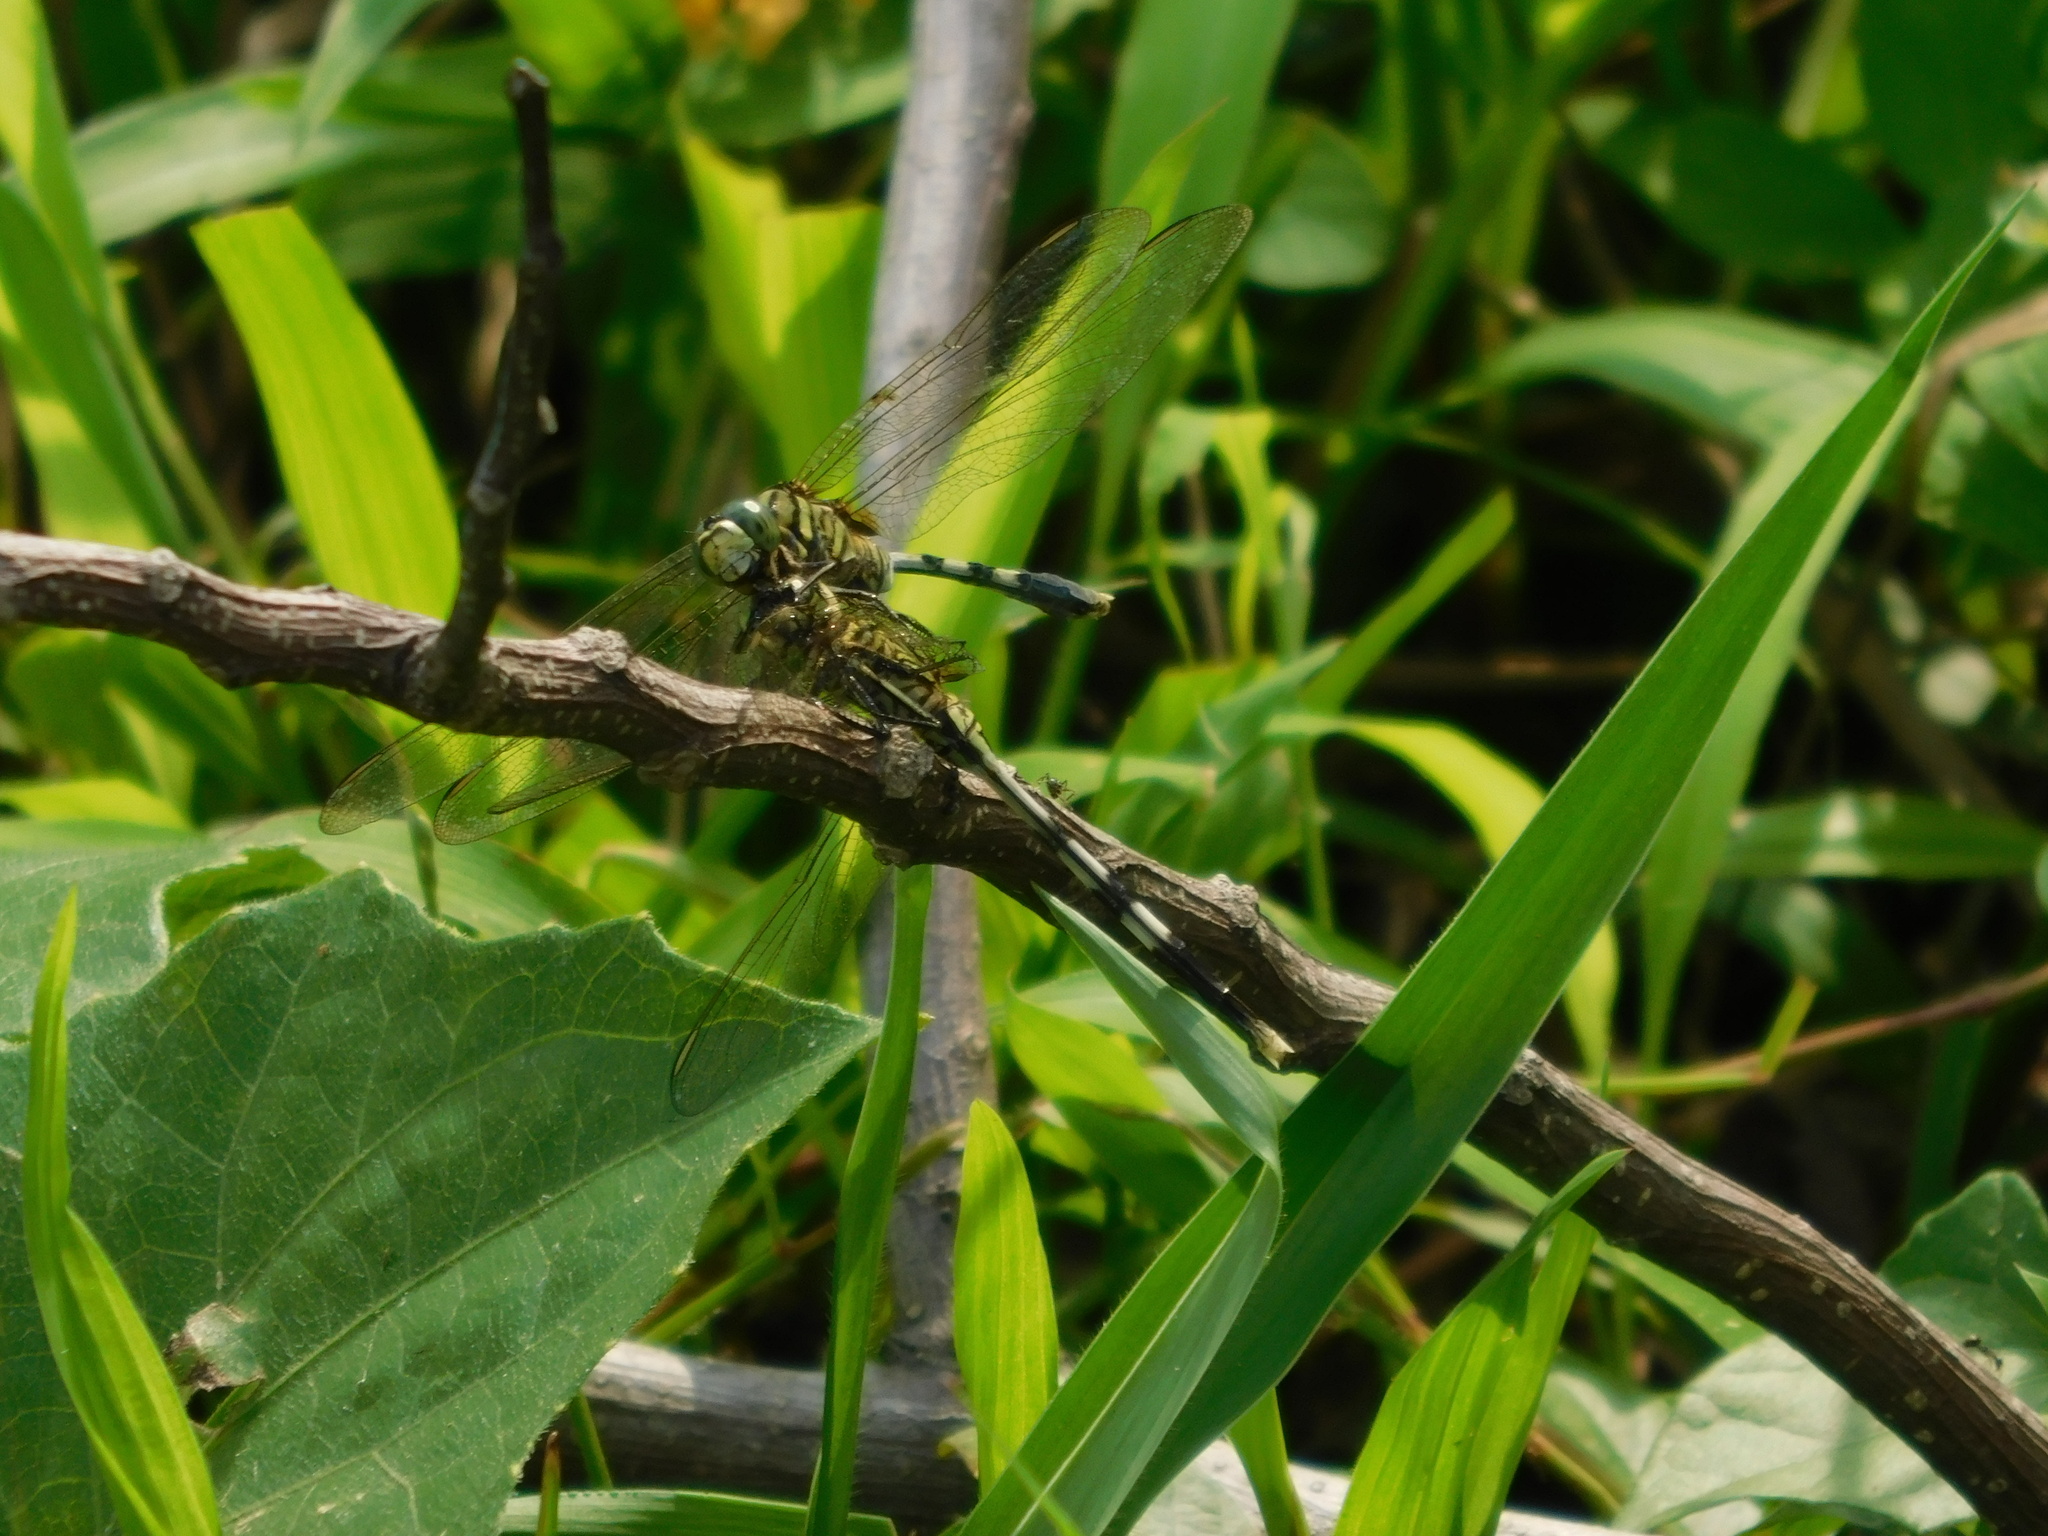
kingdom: Animalia
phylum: Arthropoda
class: Insecta
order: Odonata
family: Libellulidae
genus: Orthetrum
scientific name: Orthetrum sabina
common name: Slender skimmer
